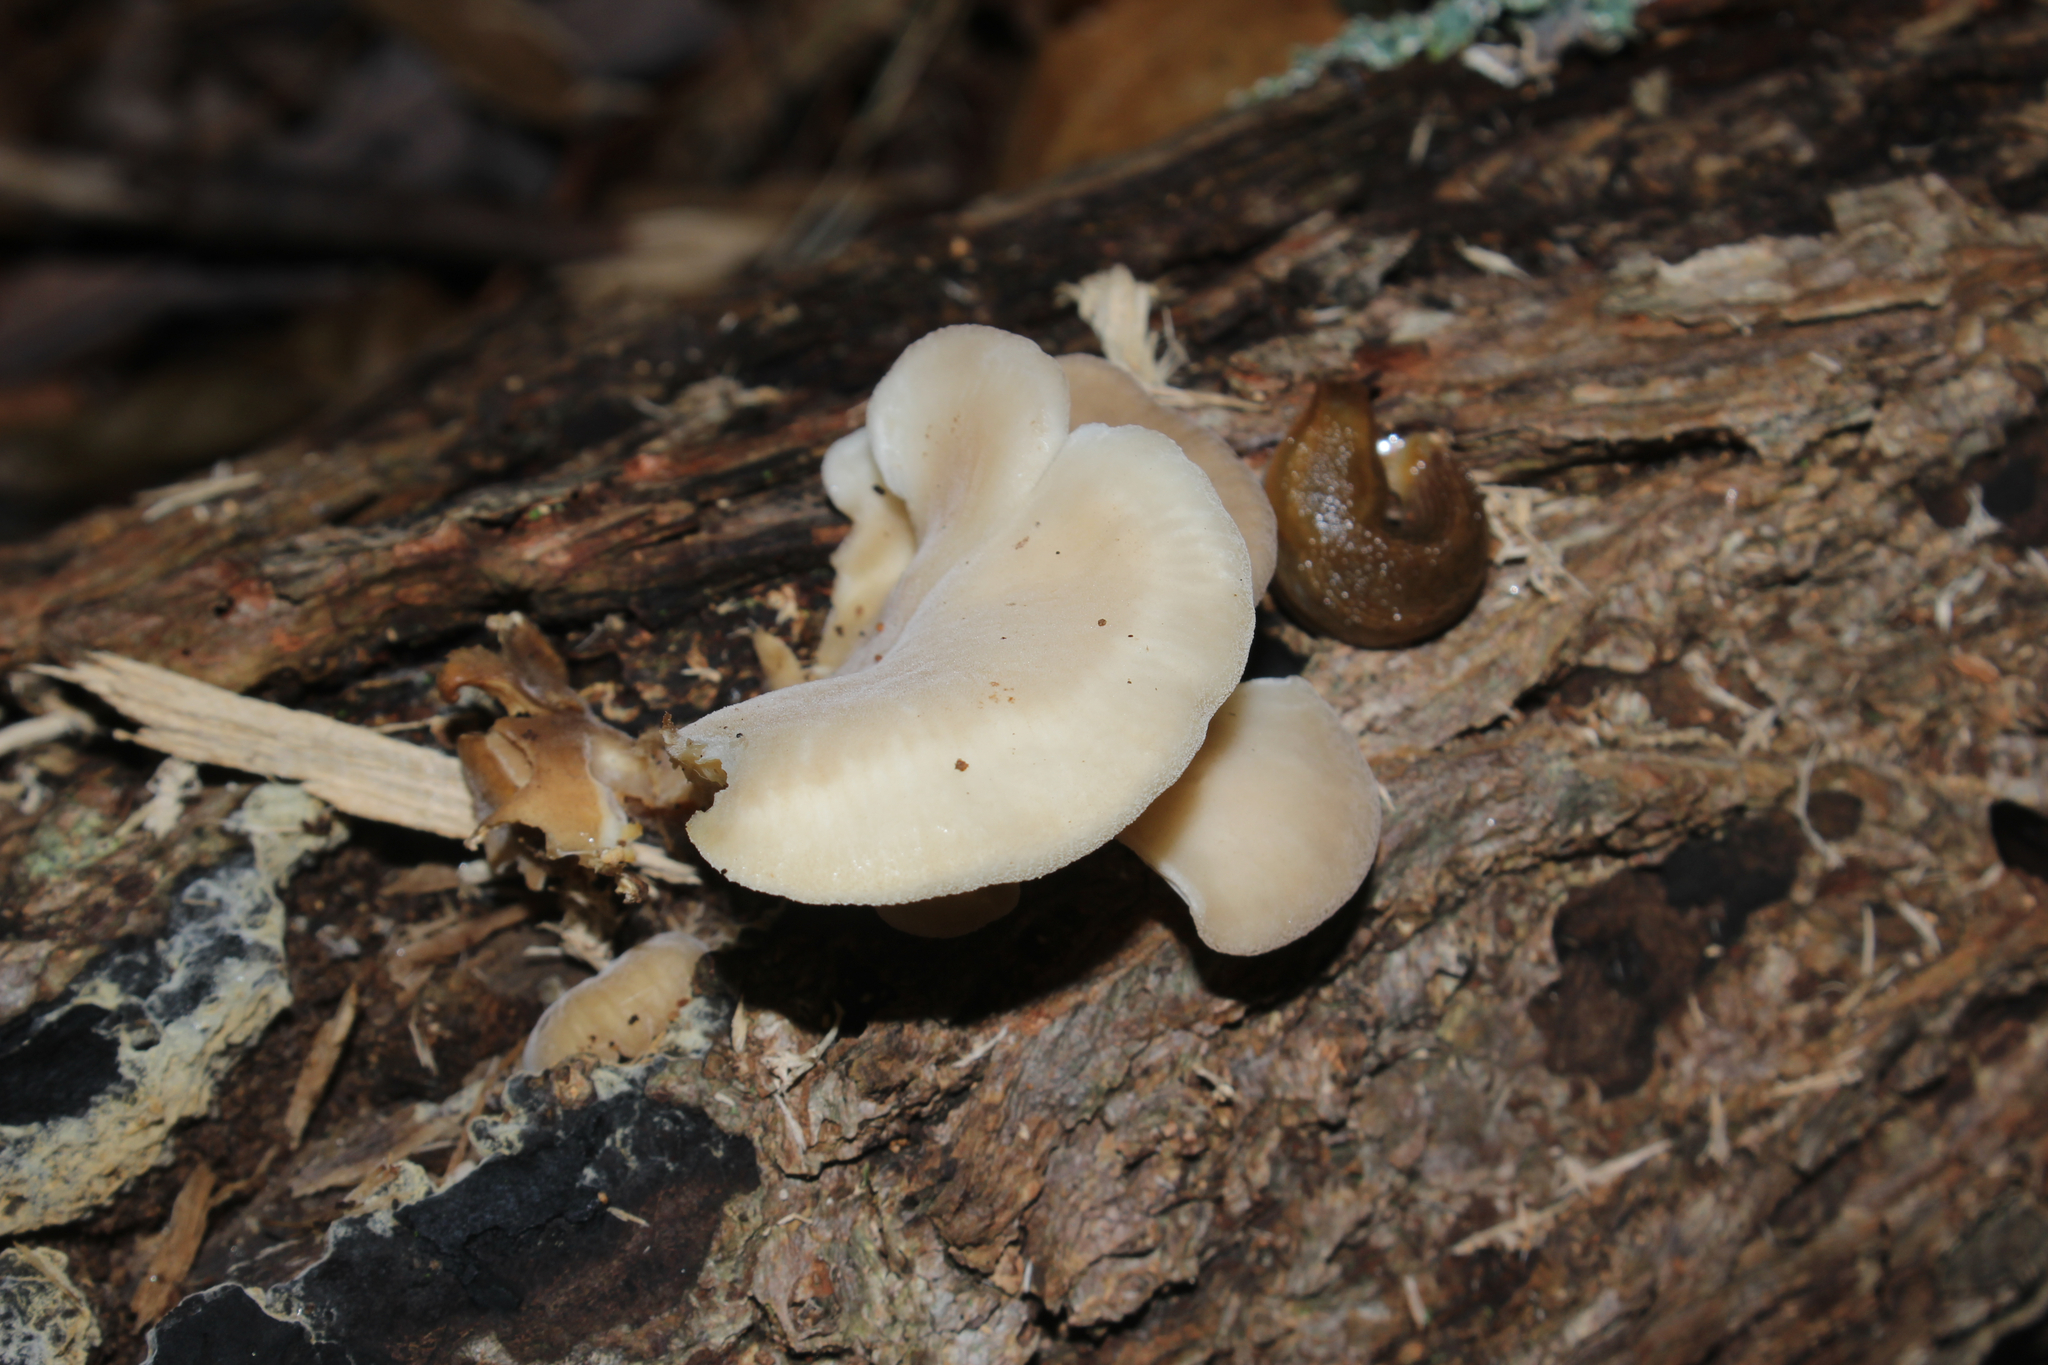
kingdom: Fungi
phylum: Basidiomycota
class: Agaricomycetes
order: Agaricales
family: Pleurotaceae
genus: Hohenbuehelia
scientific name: Hohenbuehelia angustata
